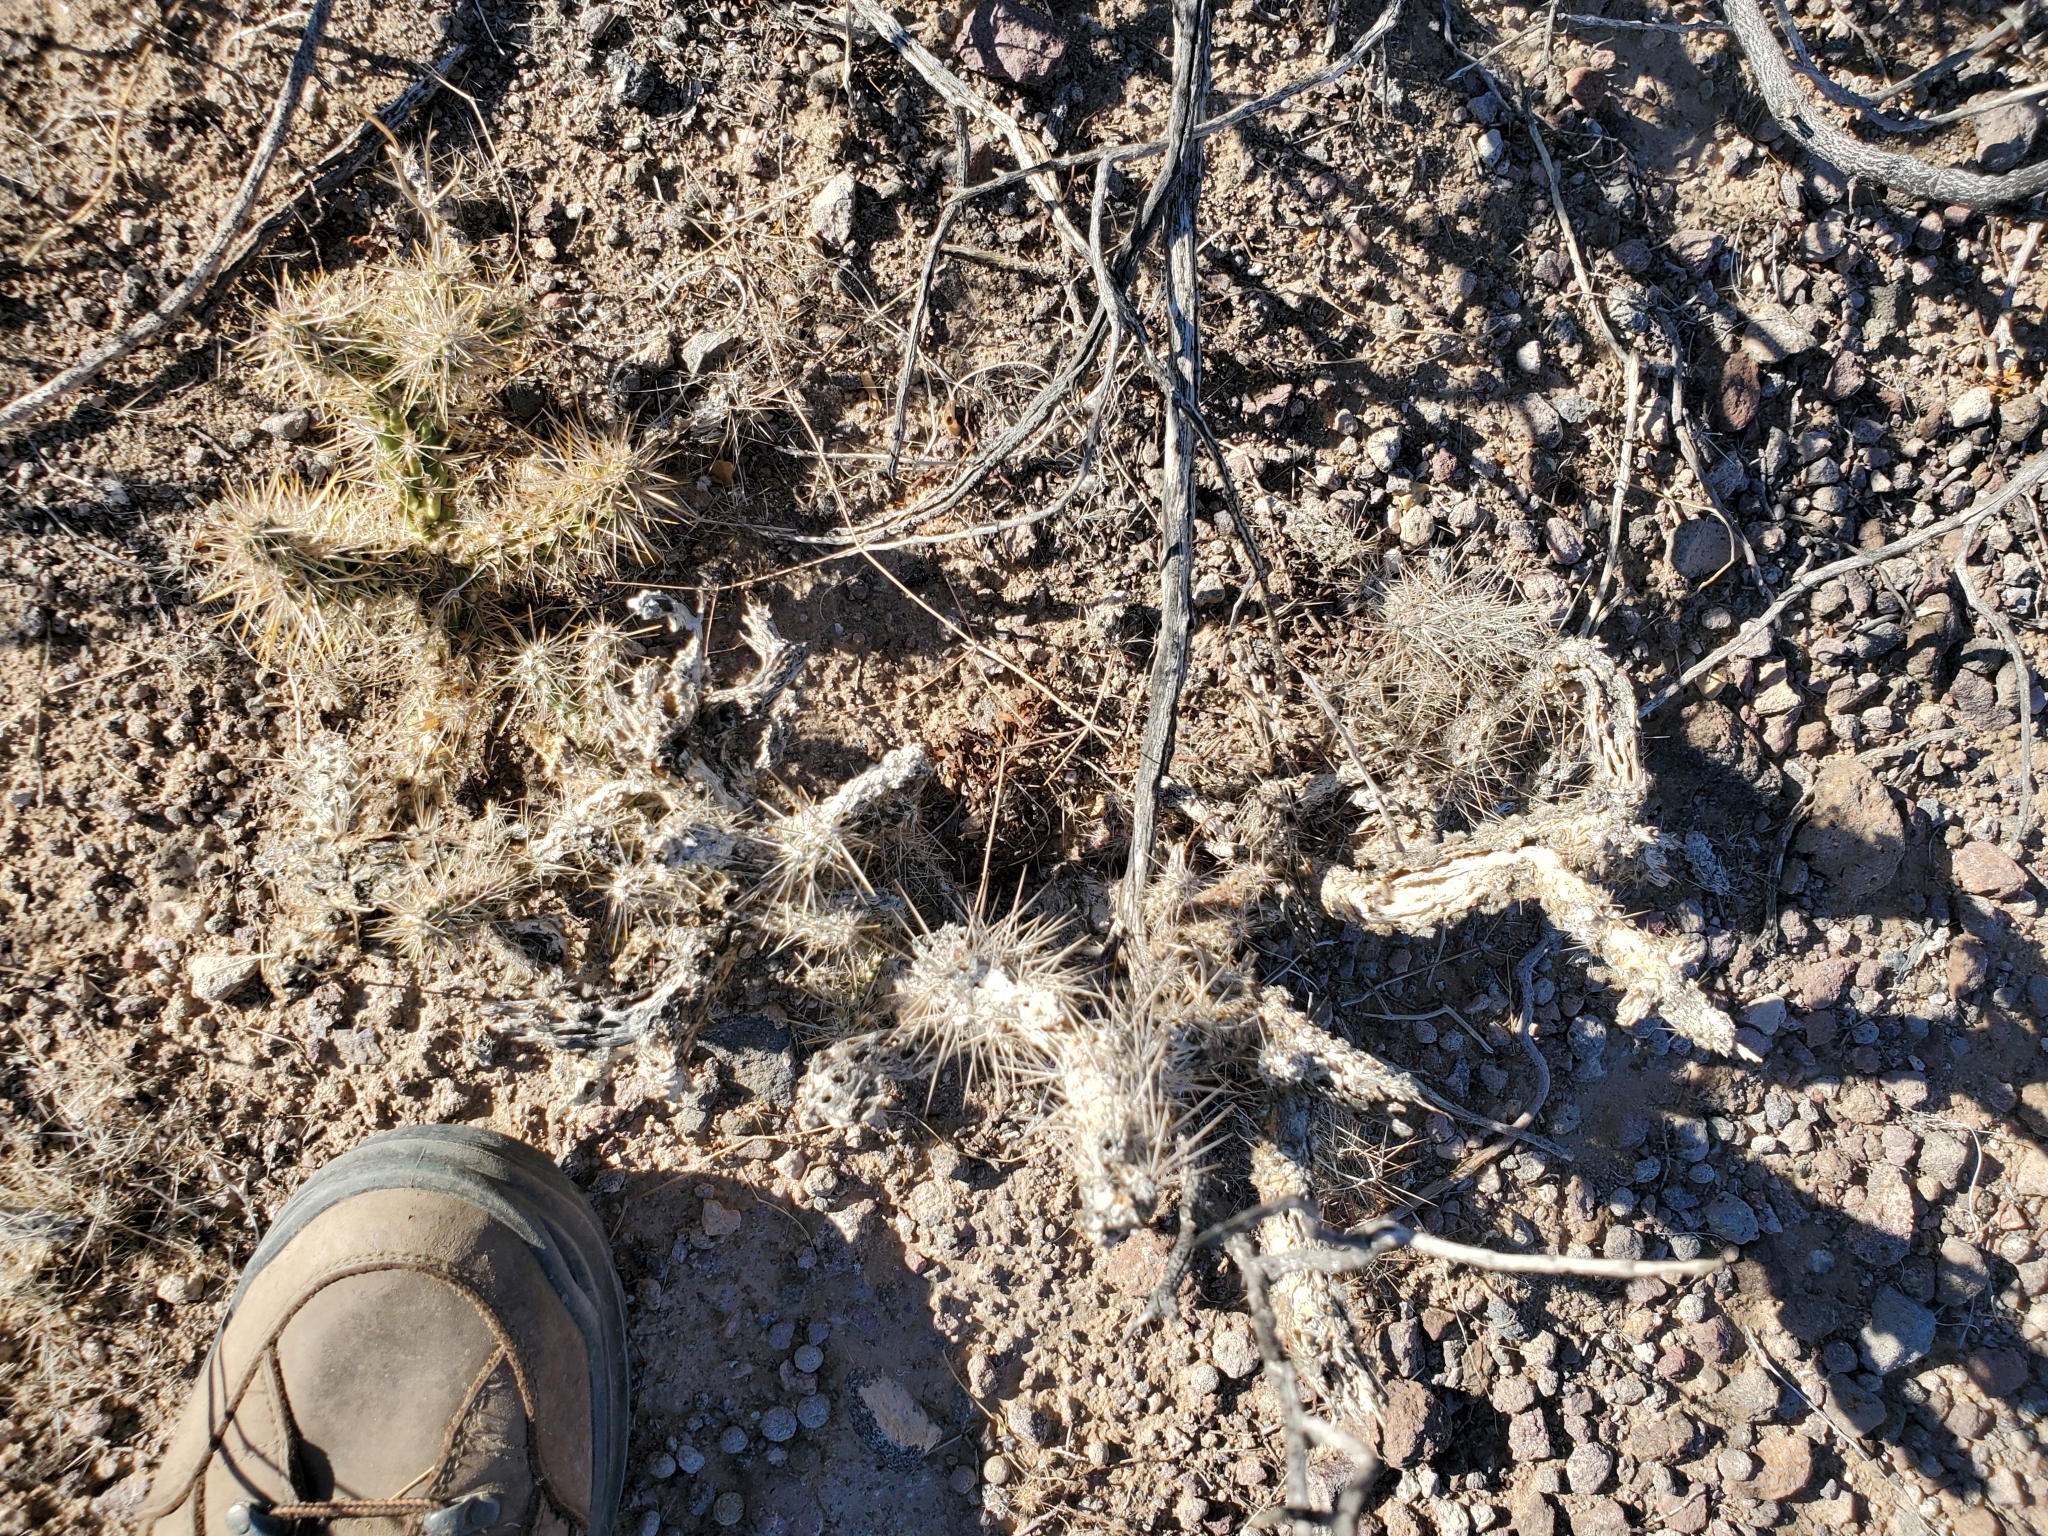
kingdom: Plantae
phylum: Tracheophyta
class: Magnoliopsida
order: Caryophyllales
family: Cactaceae
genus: Cylindropuntia
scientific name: Cylindropuntia echinocarpa
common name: Ground cholla
